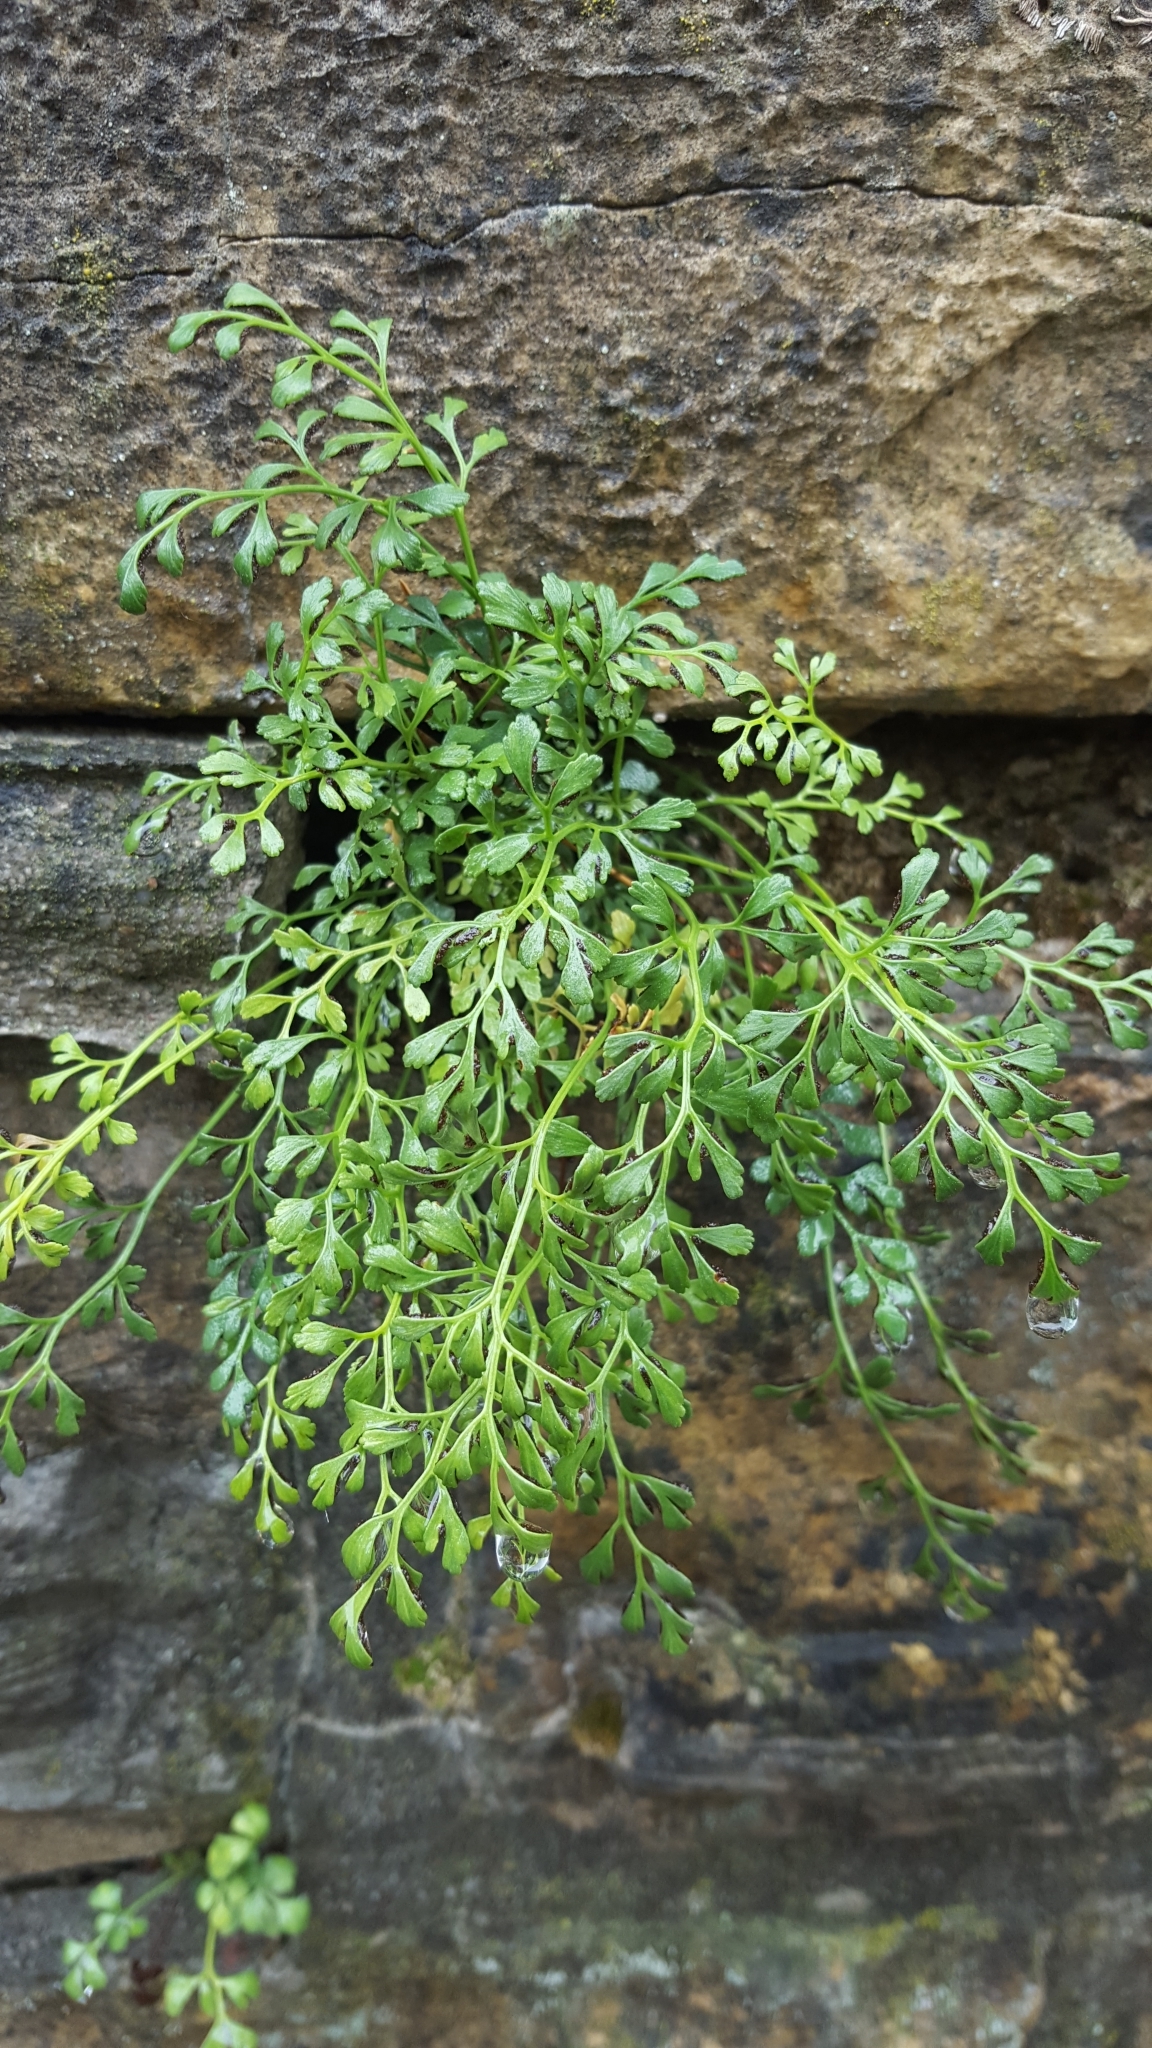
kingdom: Plantae
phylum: Tracheophyta
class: Polypodiopsida
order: Polypodiales
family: Aspleniaceae
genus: Asplenium
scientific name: Asplenium ruta-muraria
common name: Wall-rue
